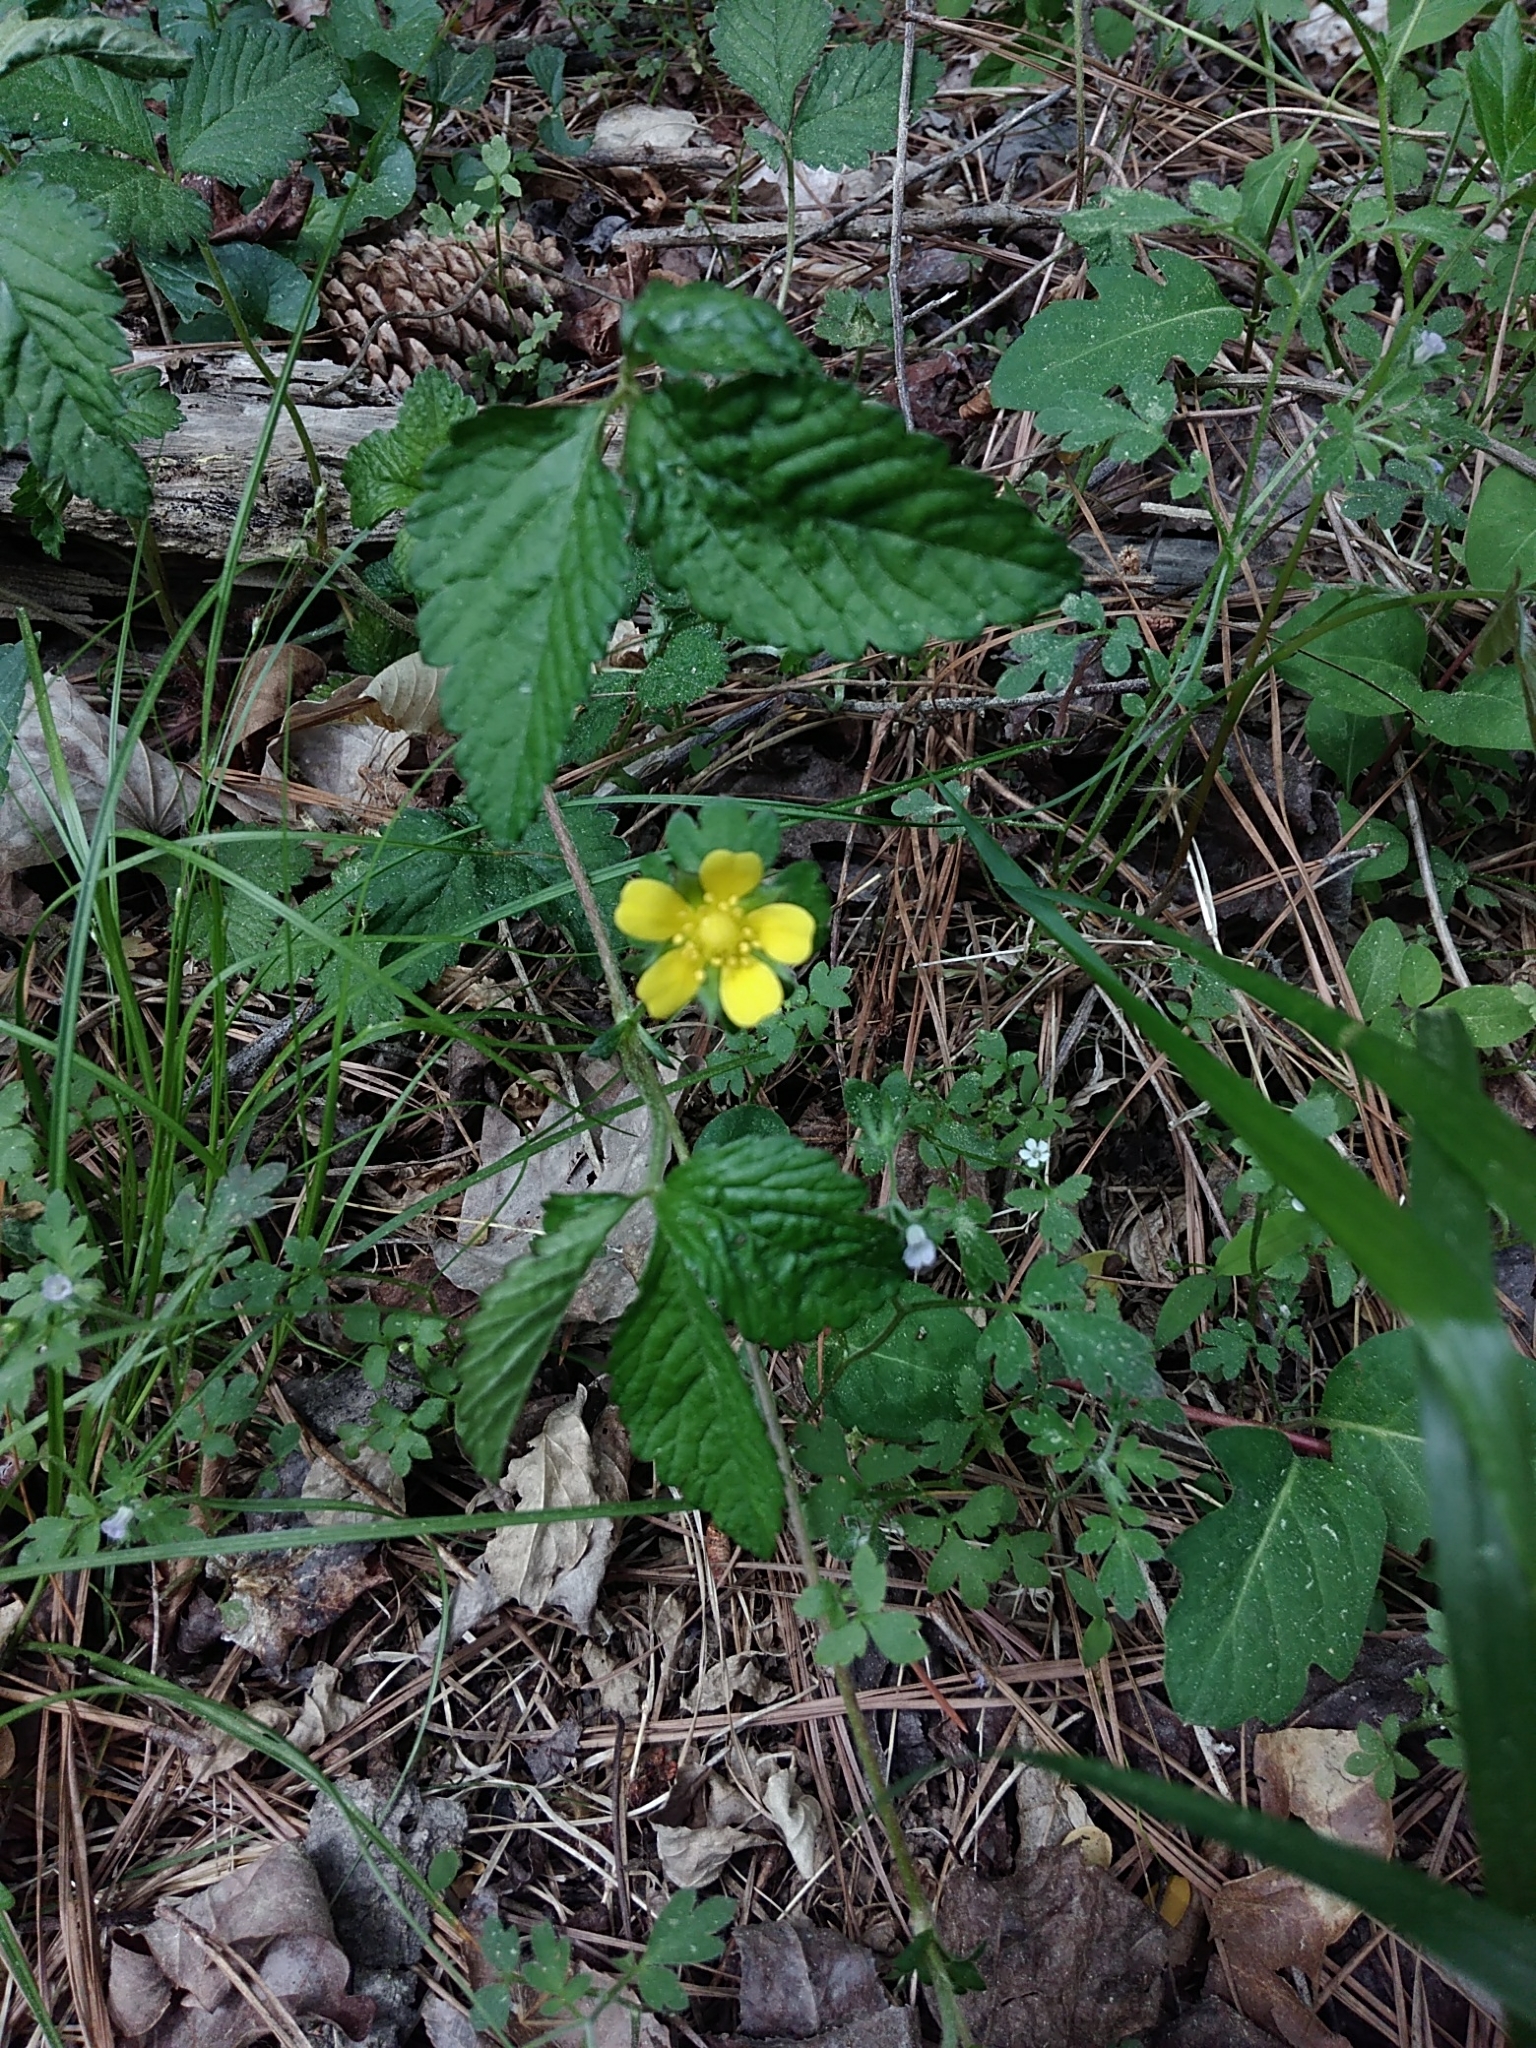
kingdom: Plantae
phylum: Tracheophyta
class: Magnoliopsida
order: Rosales
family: Rosaceae
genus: Potentilla
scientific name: Potentilla indica
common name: Yellow-flowered strawberry
